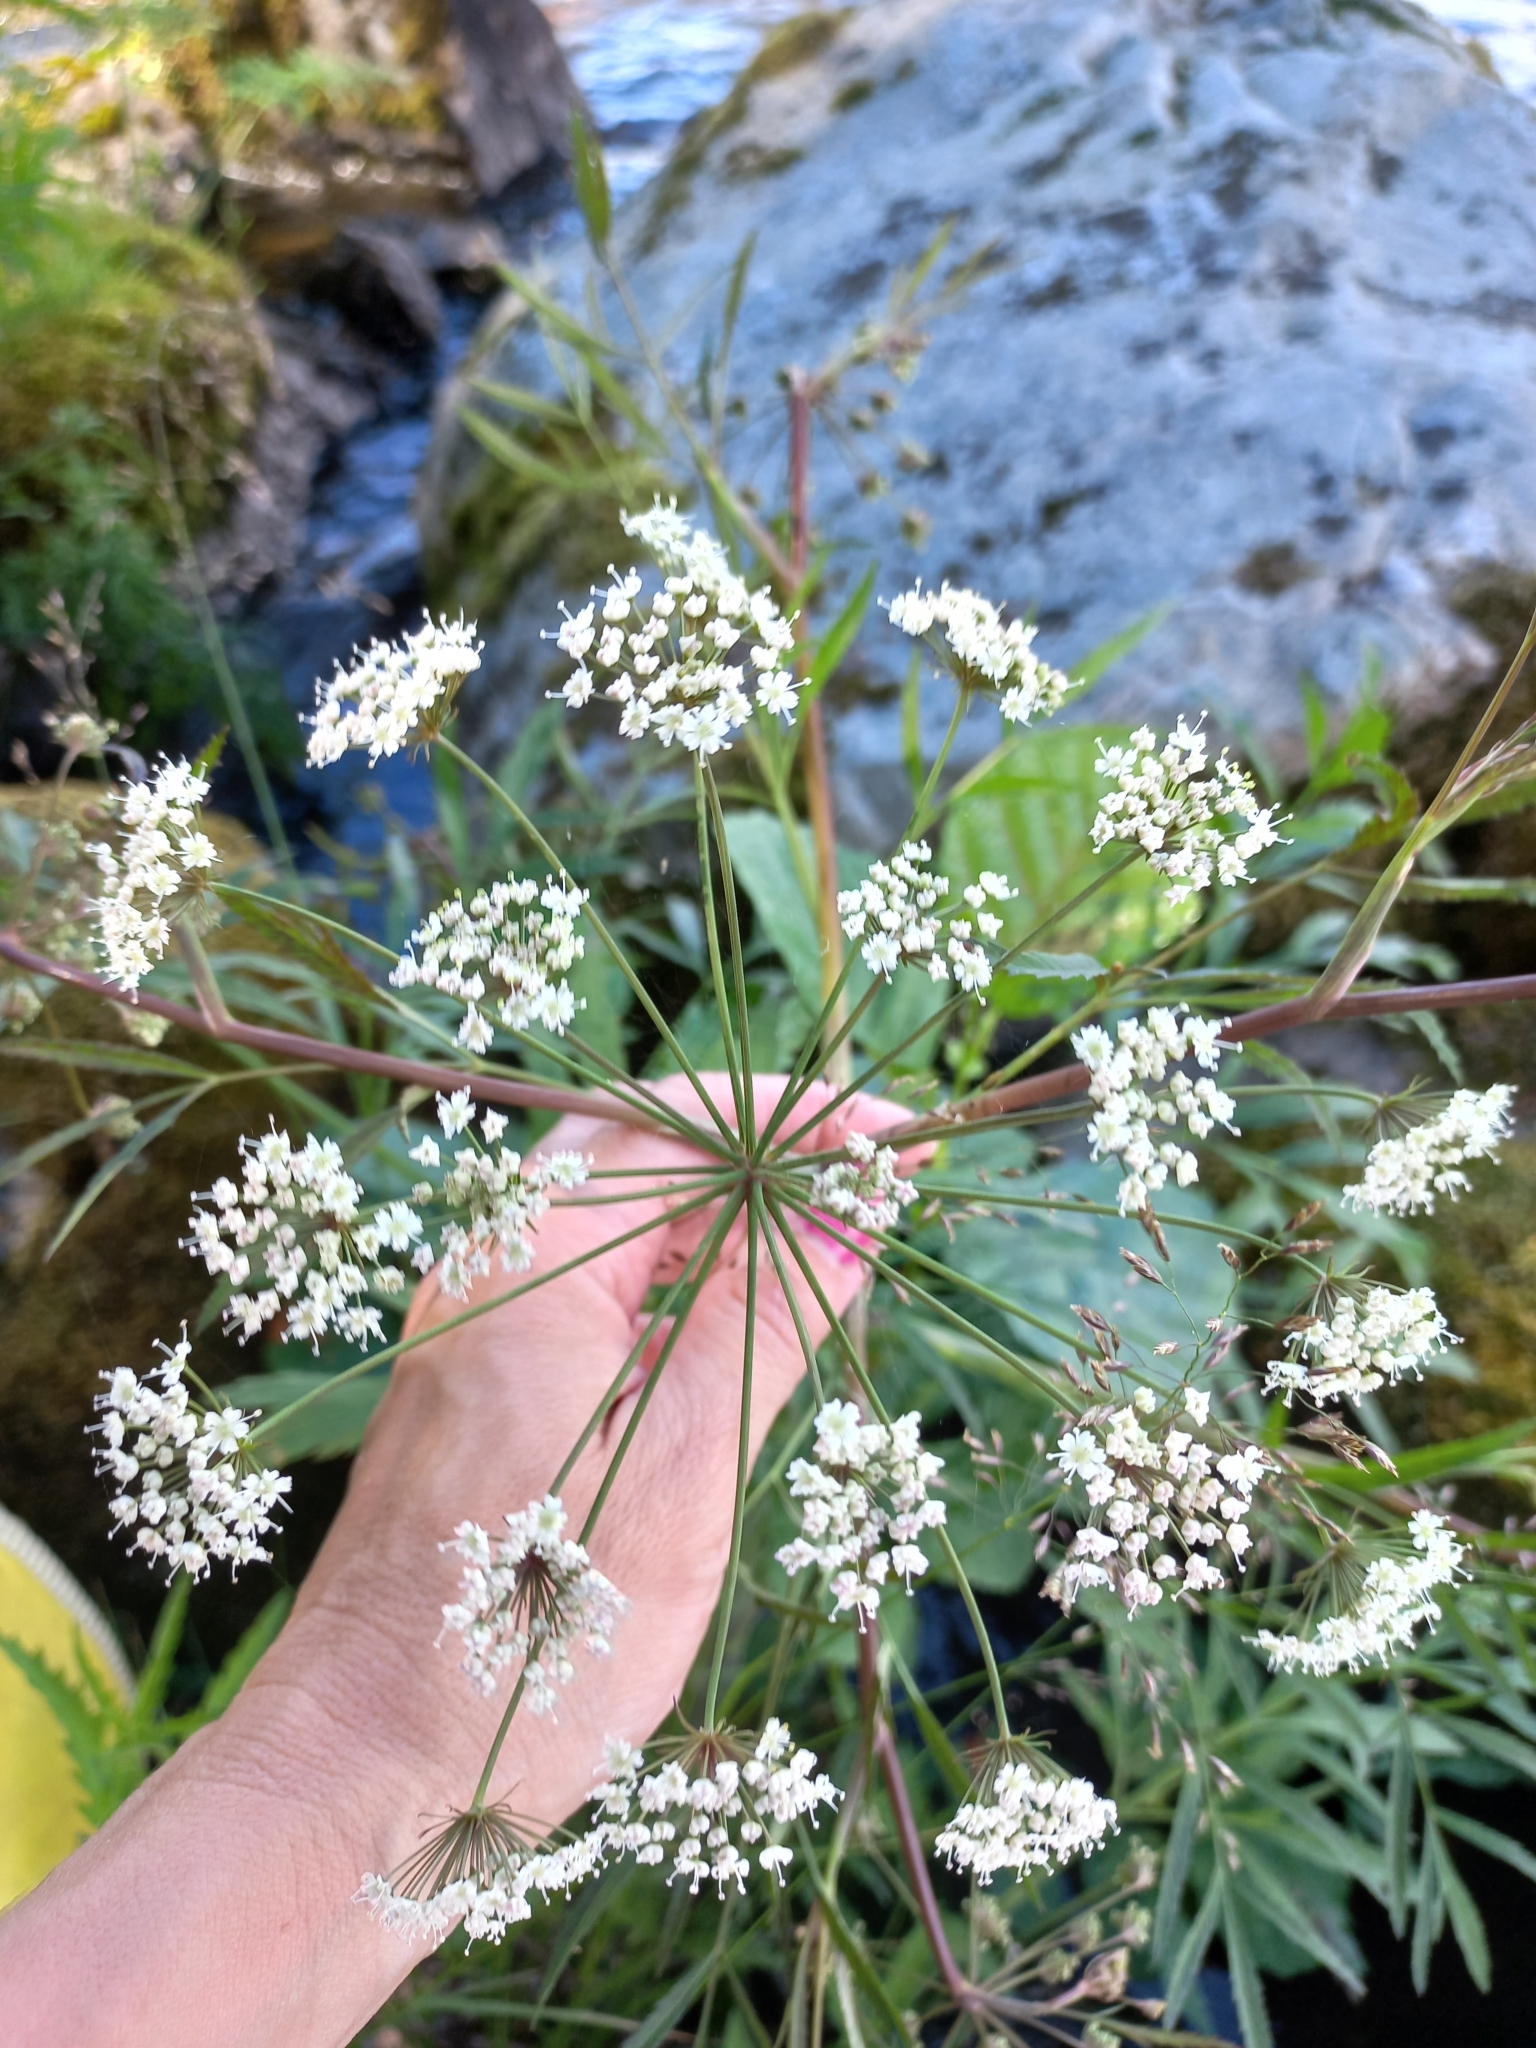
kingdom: Plantae
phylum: Tracheophyta
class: Magnoliopsida
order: Apiales
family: Apiaceae
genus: Cicuta
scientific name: Cicuta virosa
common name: Cowbane
